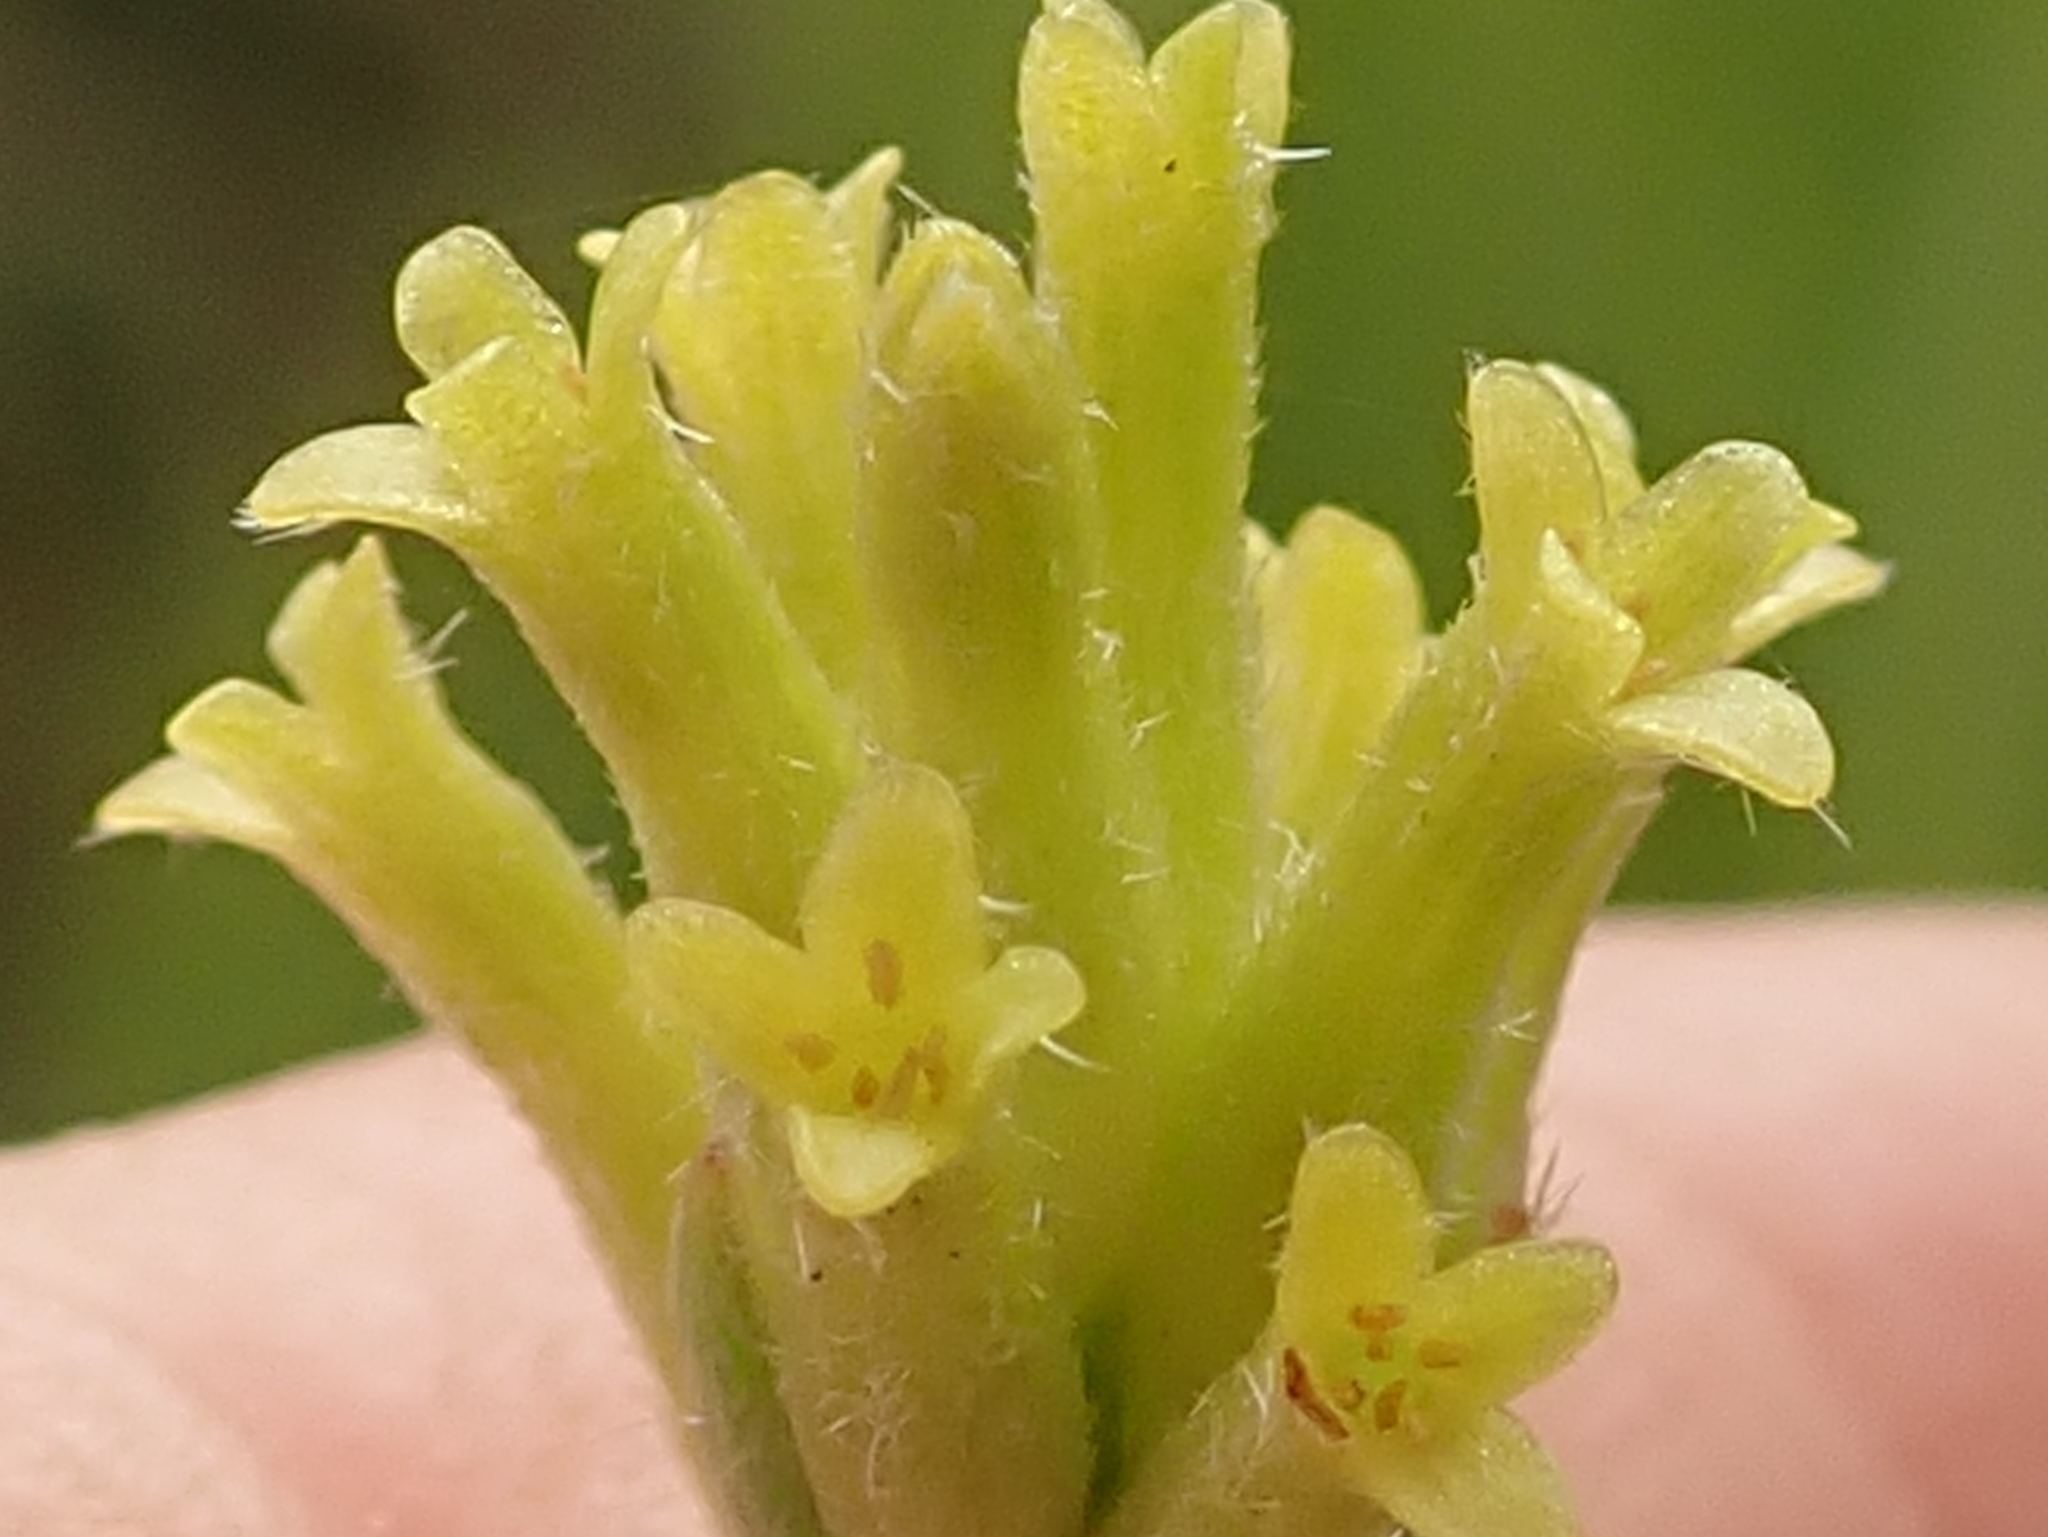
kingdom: Plantae
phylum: Tracheophyta
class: Magnoliopsida
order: Malvales
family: Thymelaeaceae
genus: Gnidia
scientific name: Gnidia phaeotricha
